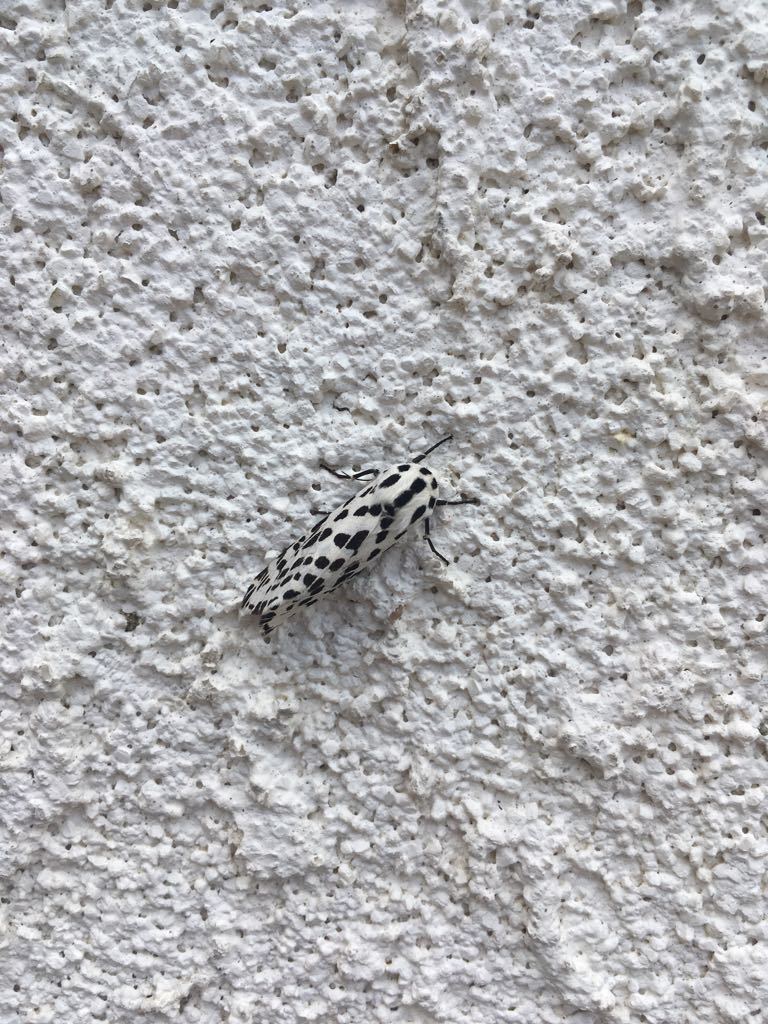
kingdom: Animalia
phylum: Arthropoda
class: Insecta
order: Lepidoptera
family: Erebidae
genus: Hypercompe
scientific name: Hypercompe permaculata
